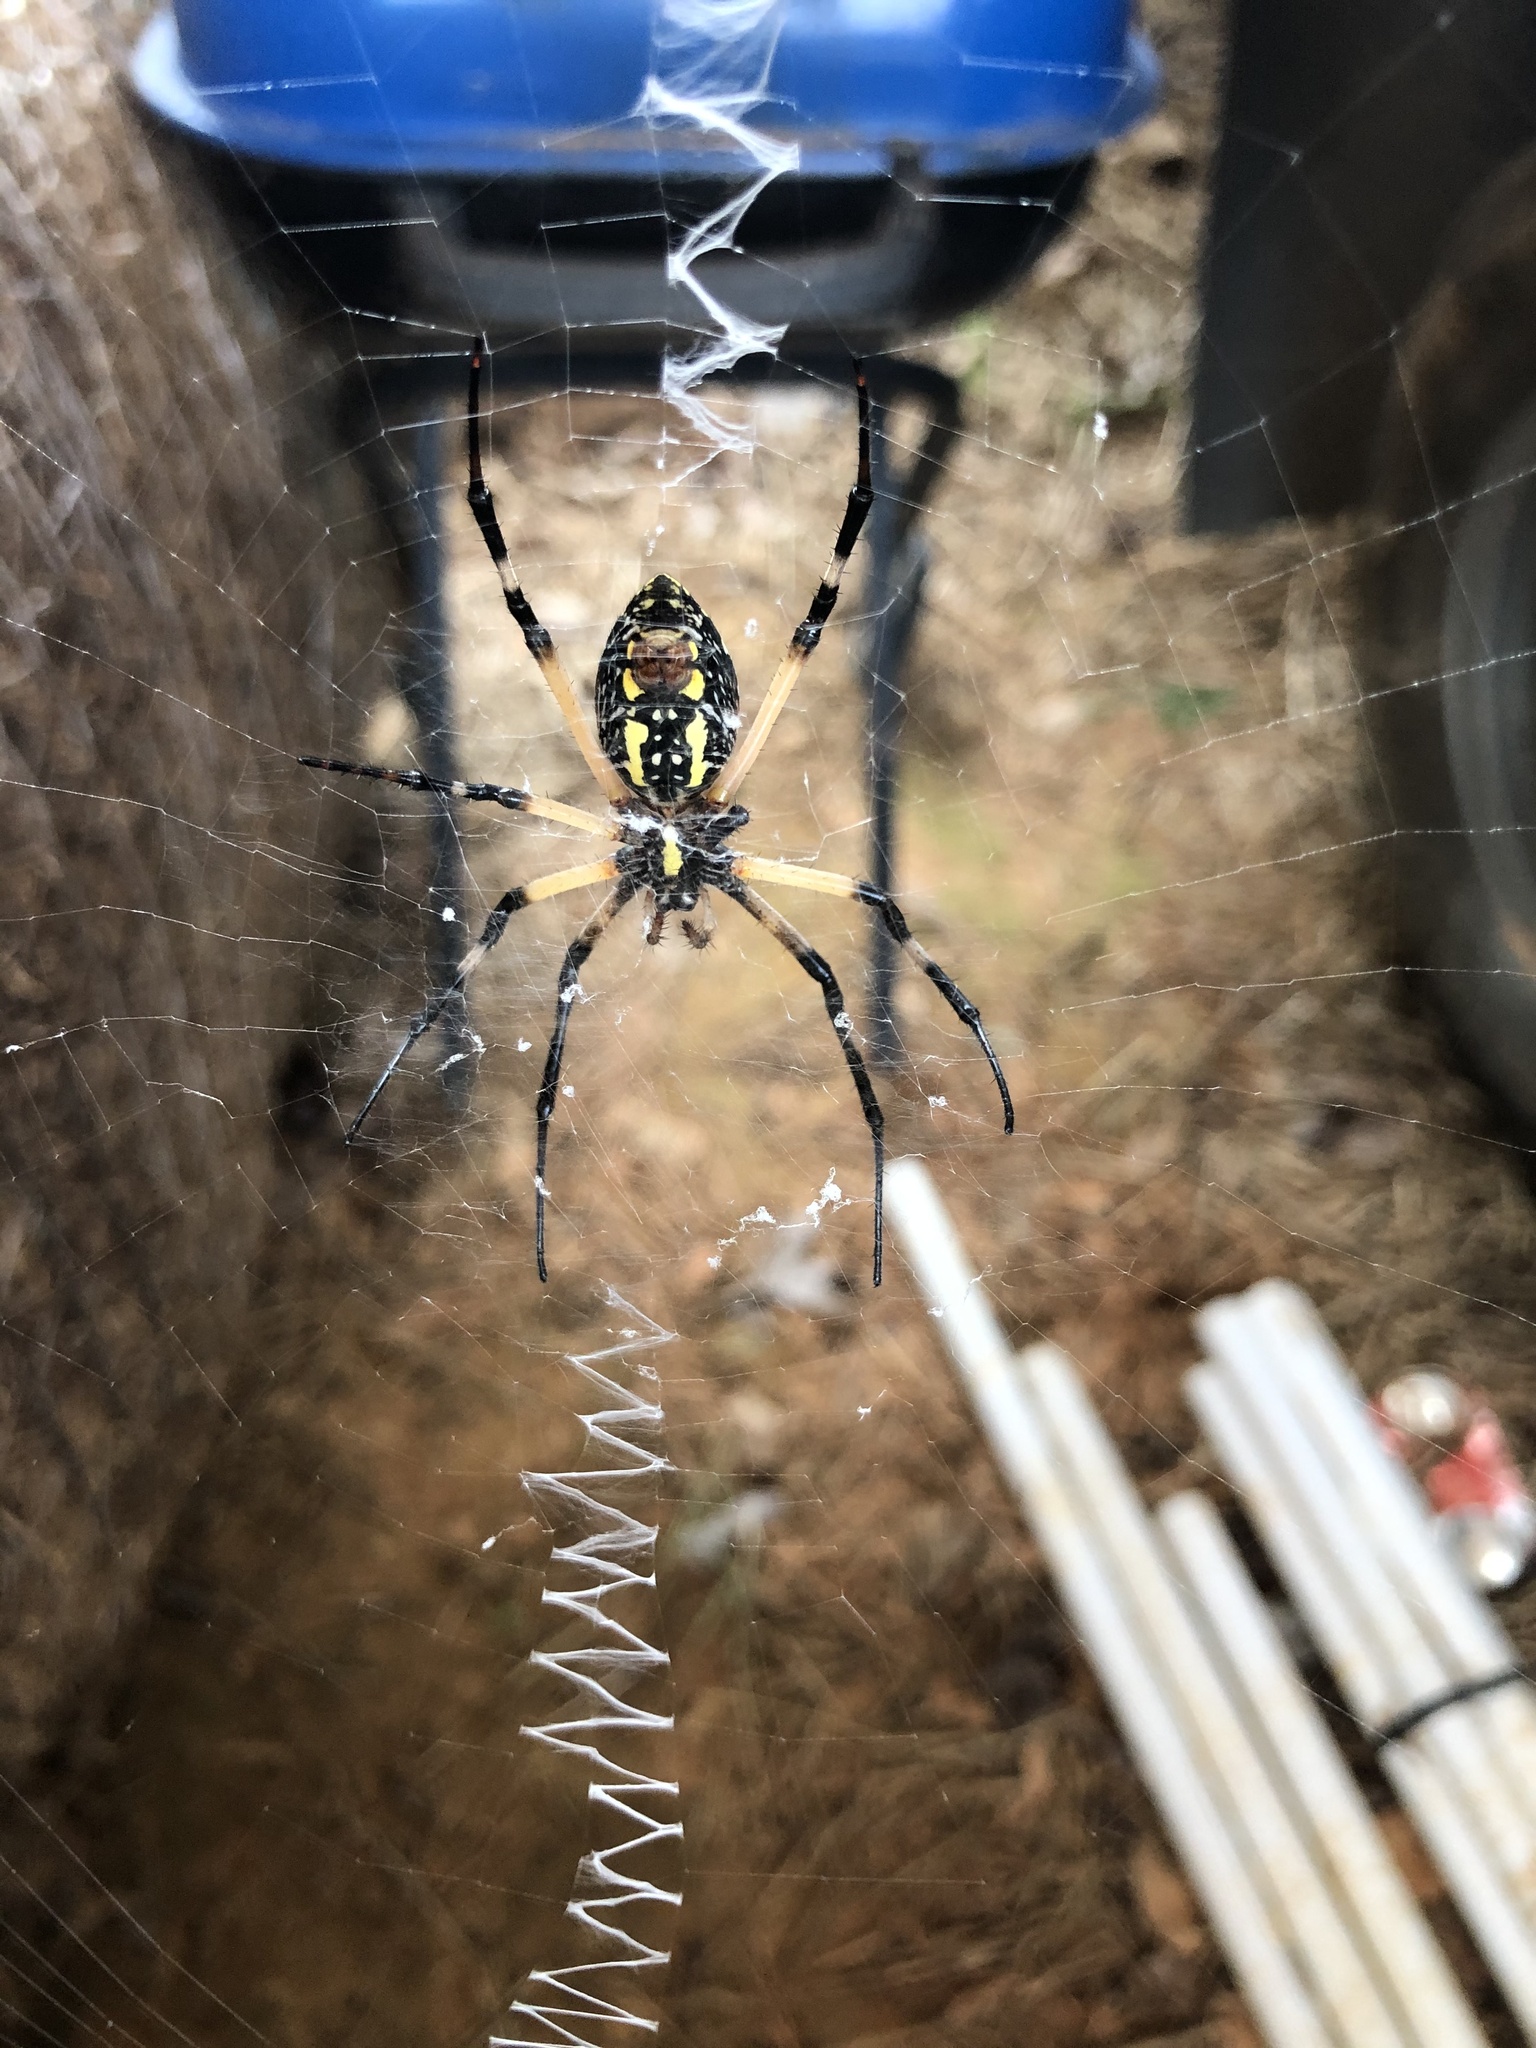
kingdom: Animalia
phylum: Arthropoda
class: Arachnida
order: Araneae
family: Araneidae
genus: Argiope
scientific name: Argiope aurantia
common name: Orb weavers
